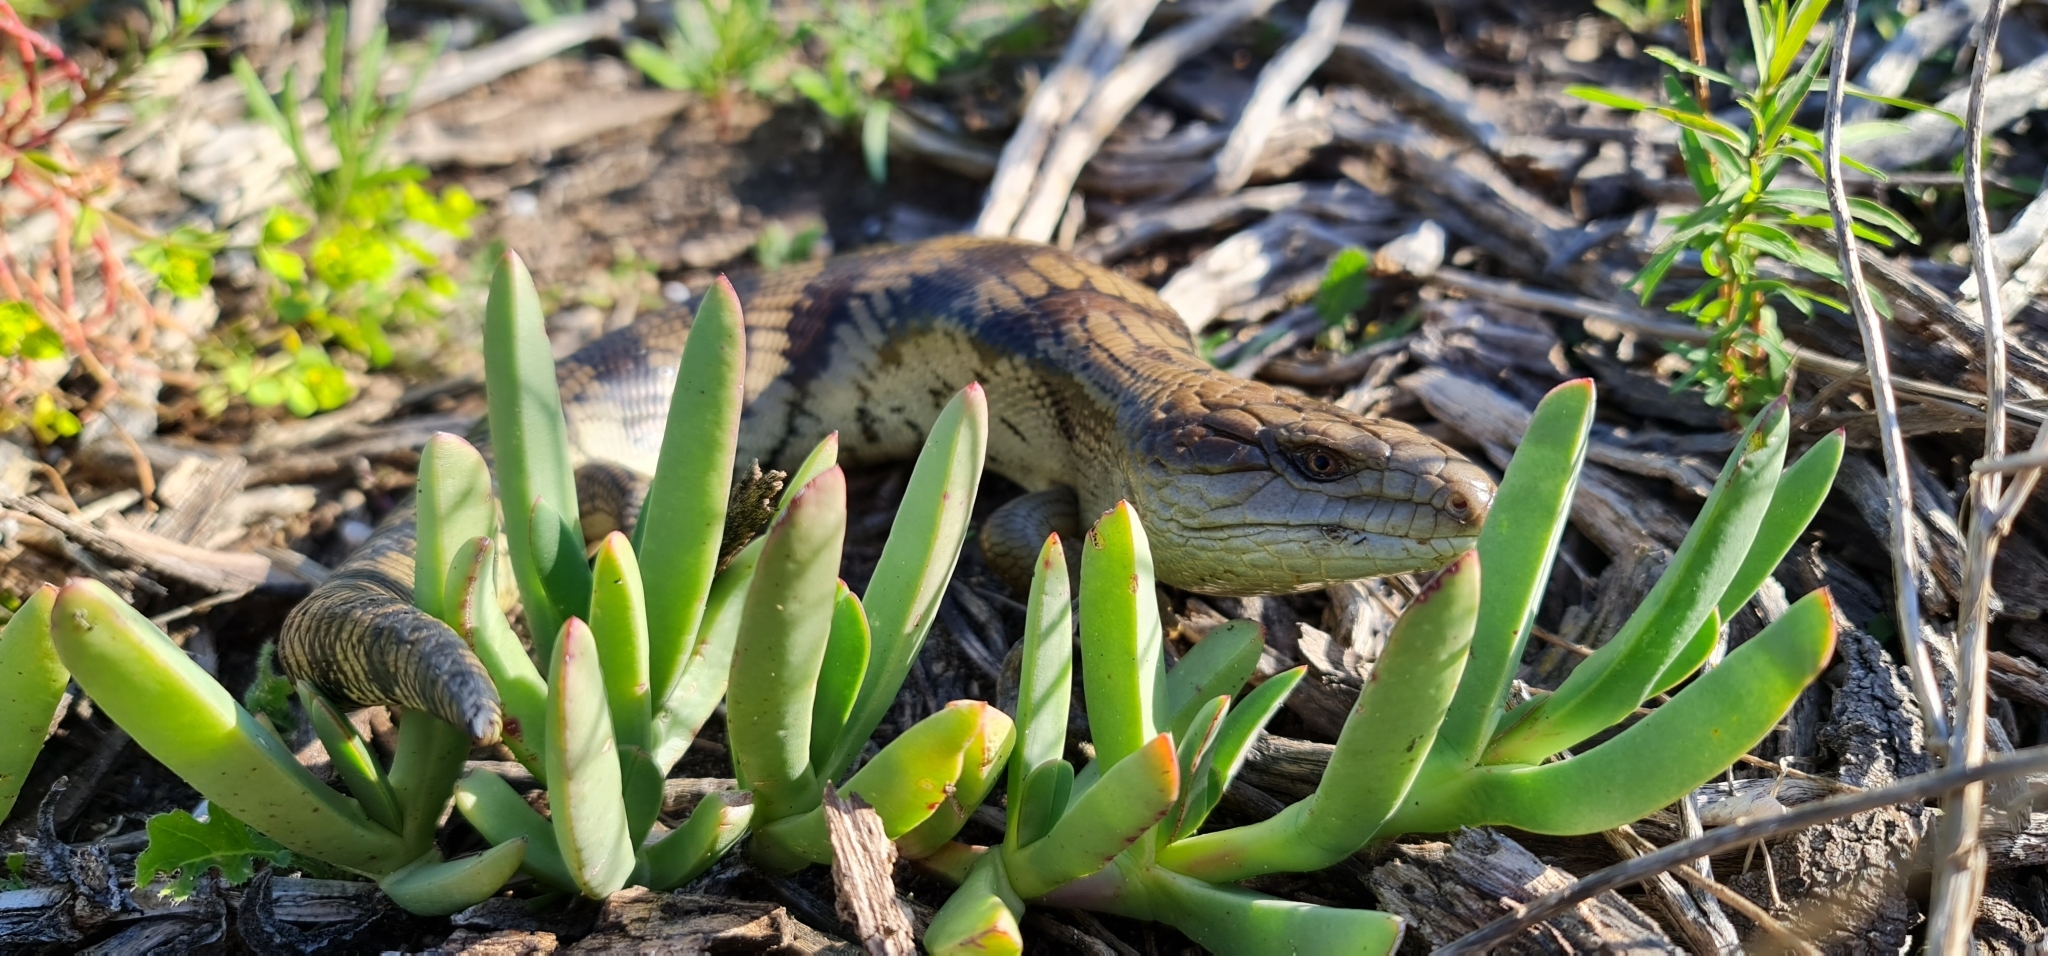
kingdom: Animalia
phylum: Chordata
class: Squamata
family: Scincidae
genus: Tiliqua
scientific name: Tiliqua scincoides
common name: Common bluetongue
